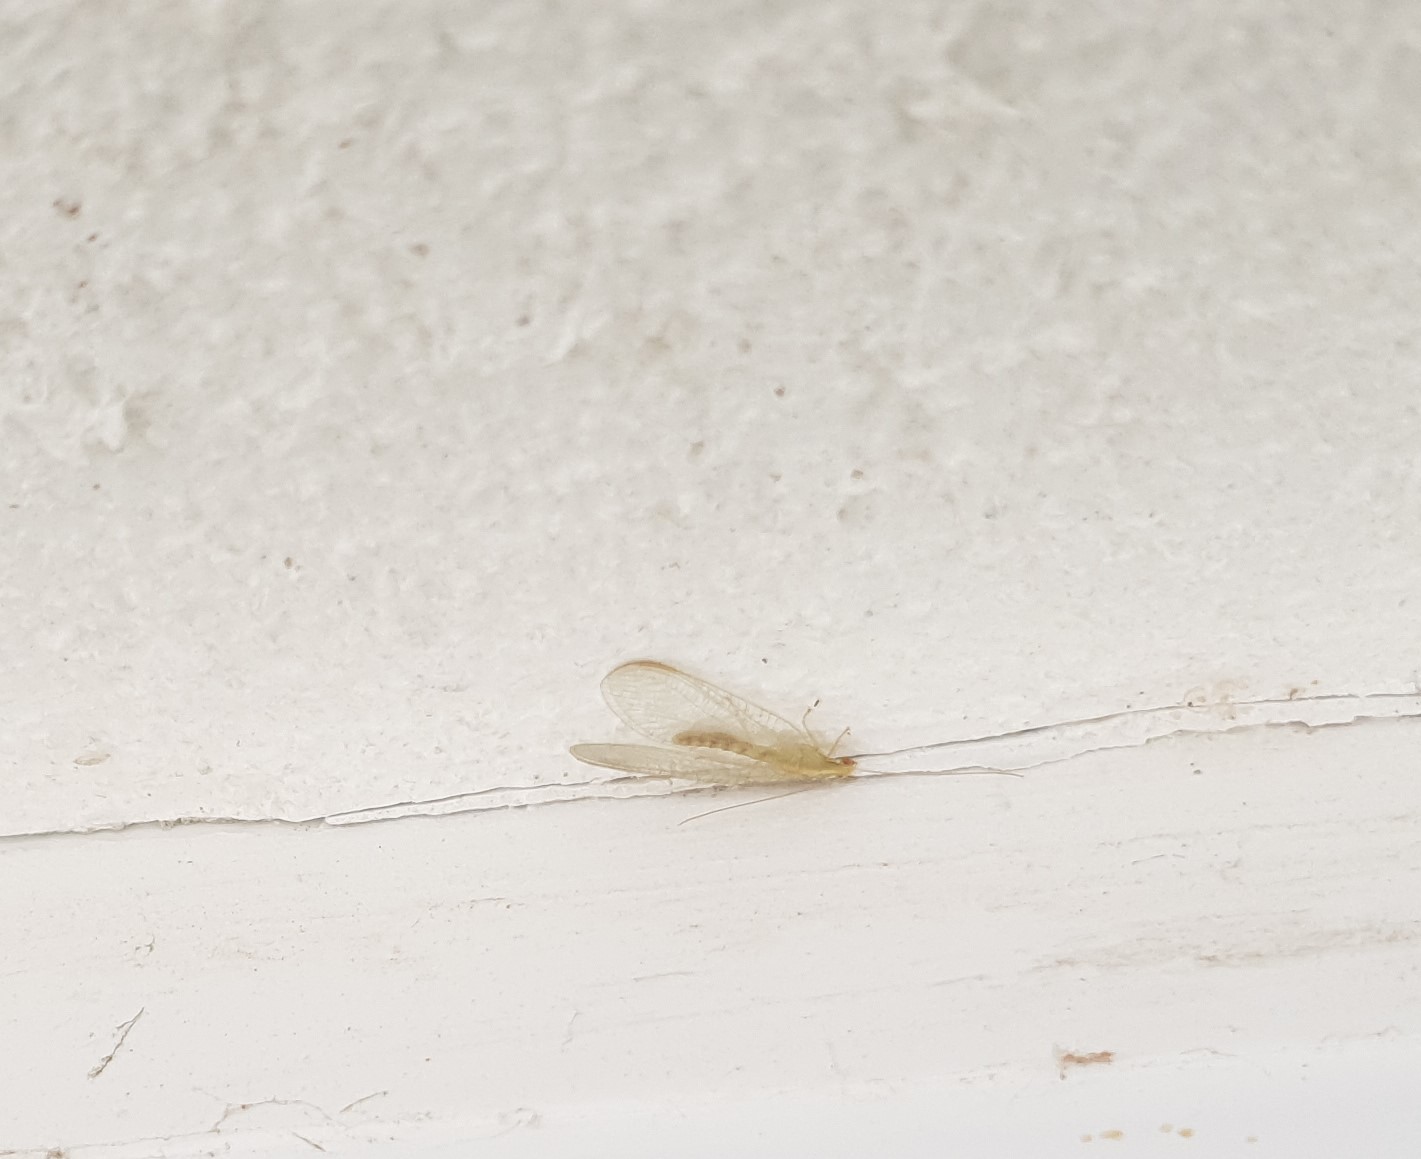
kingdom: Animalia
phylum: Arthropoda
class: Insecta
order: Neuroptera
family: Chrysopidae
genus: Chrysoperla
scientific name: Chrysoperla
